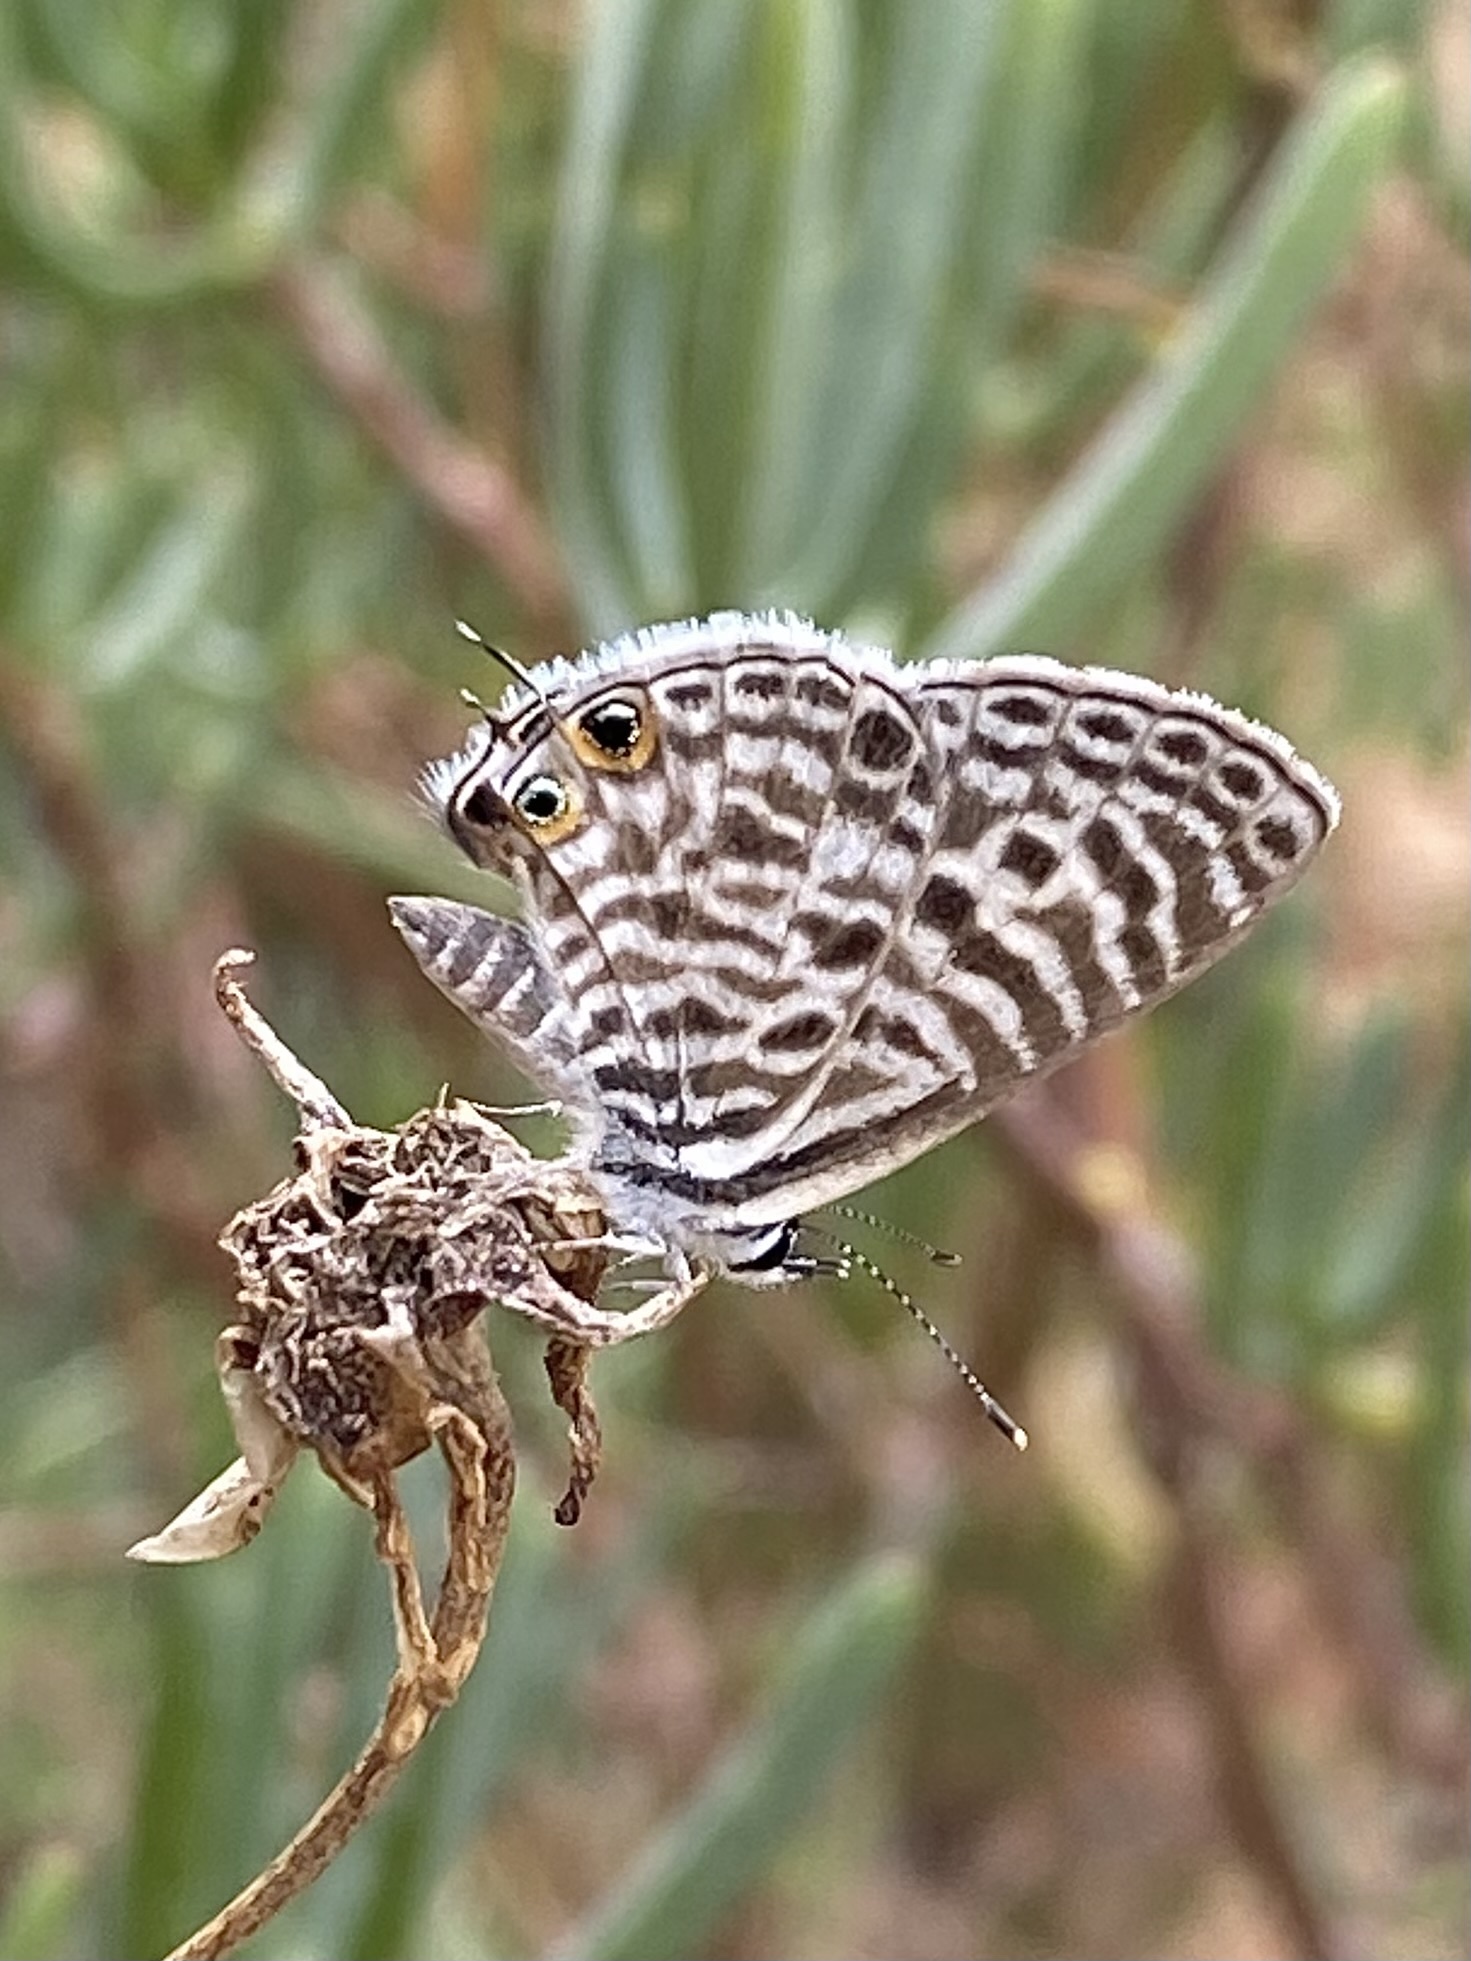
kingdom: Animalia
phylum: Arthropoda
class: Insecta
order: Lepidoptera
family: Lycaenidae
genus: Leptotes
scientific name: Leptotes
